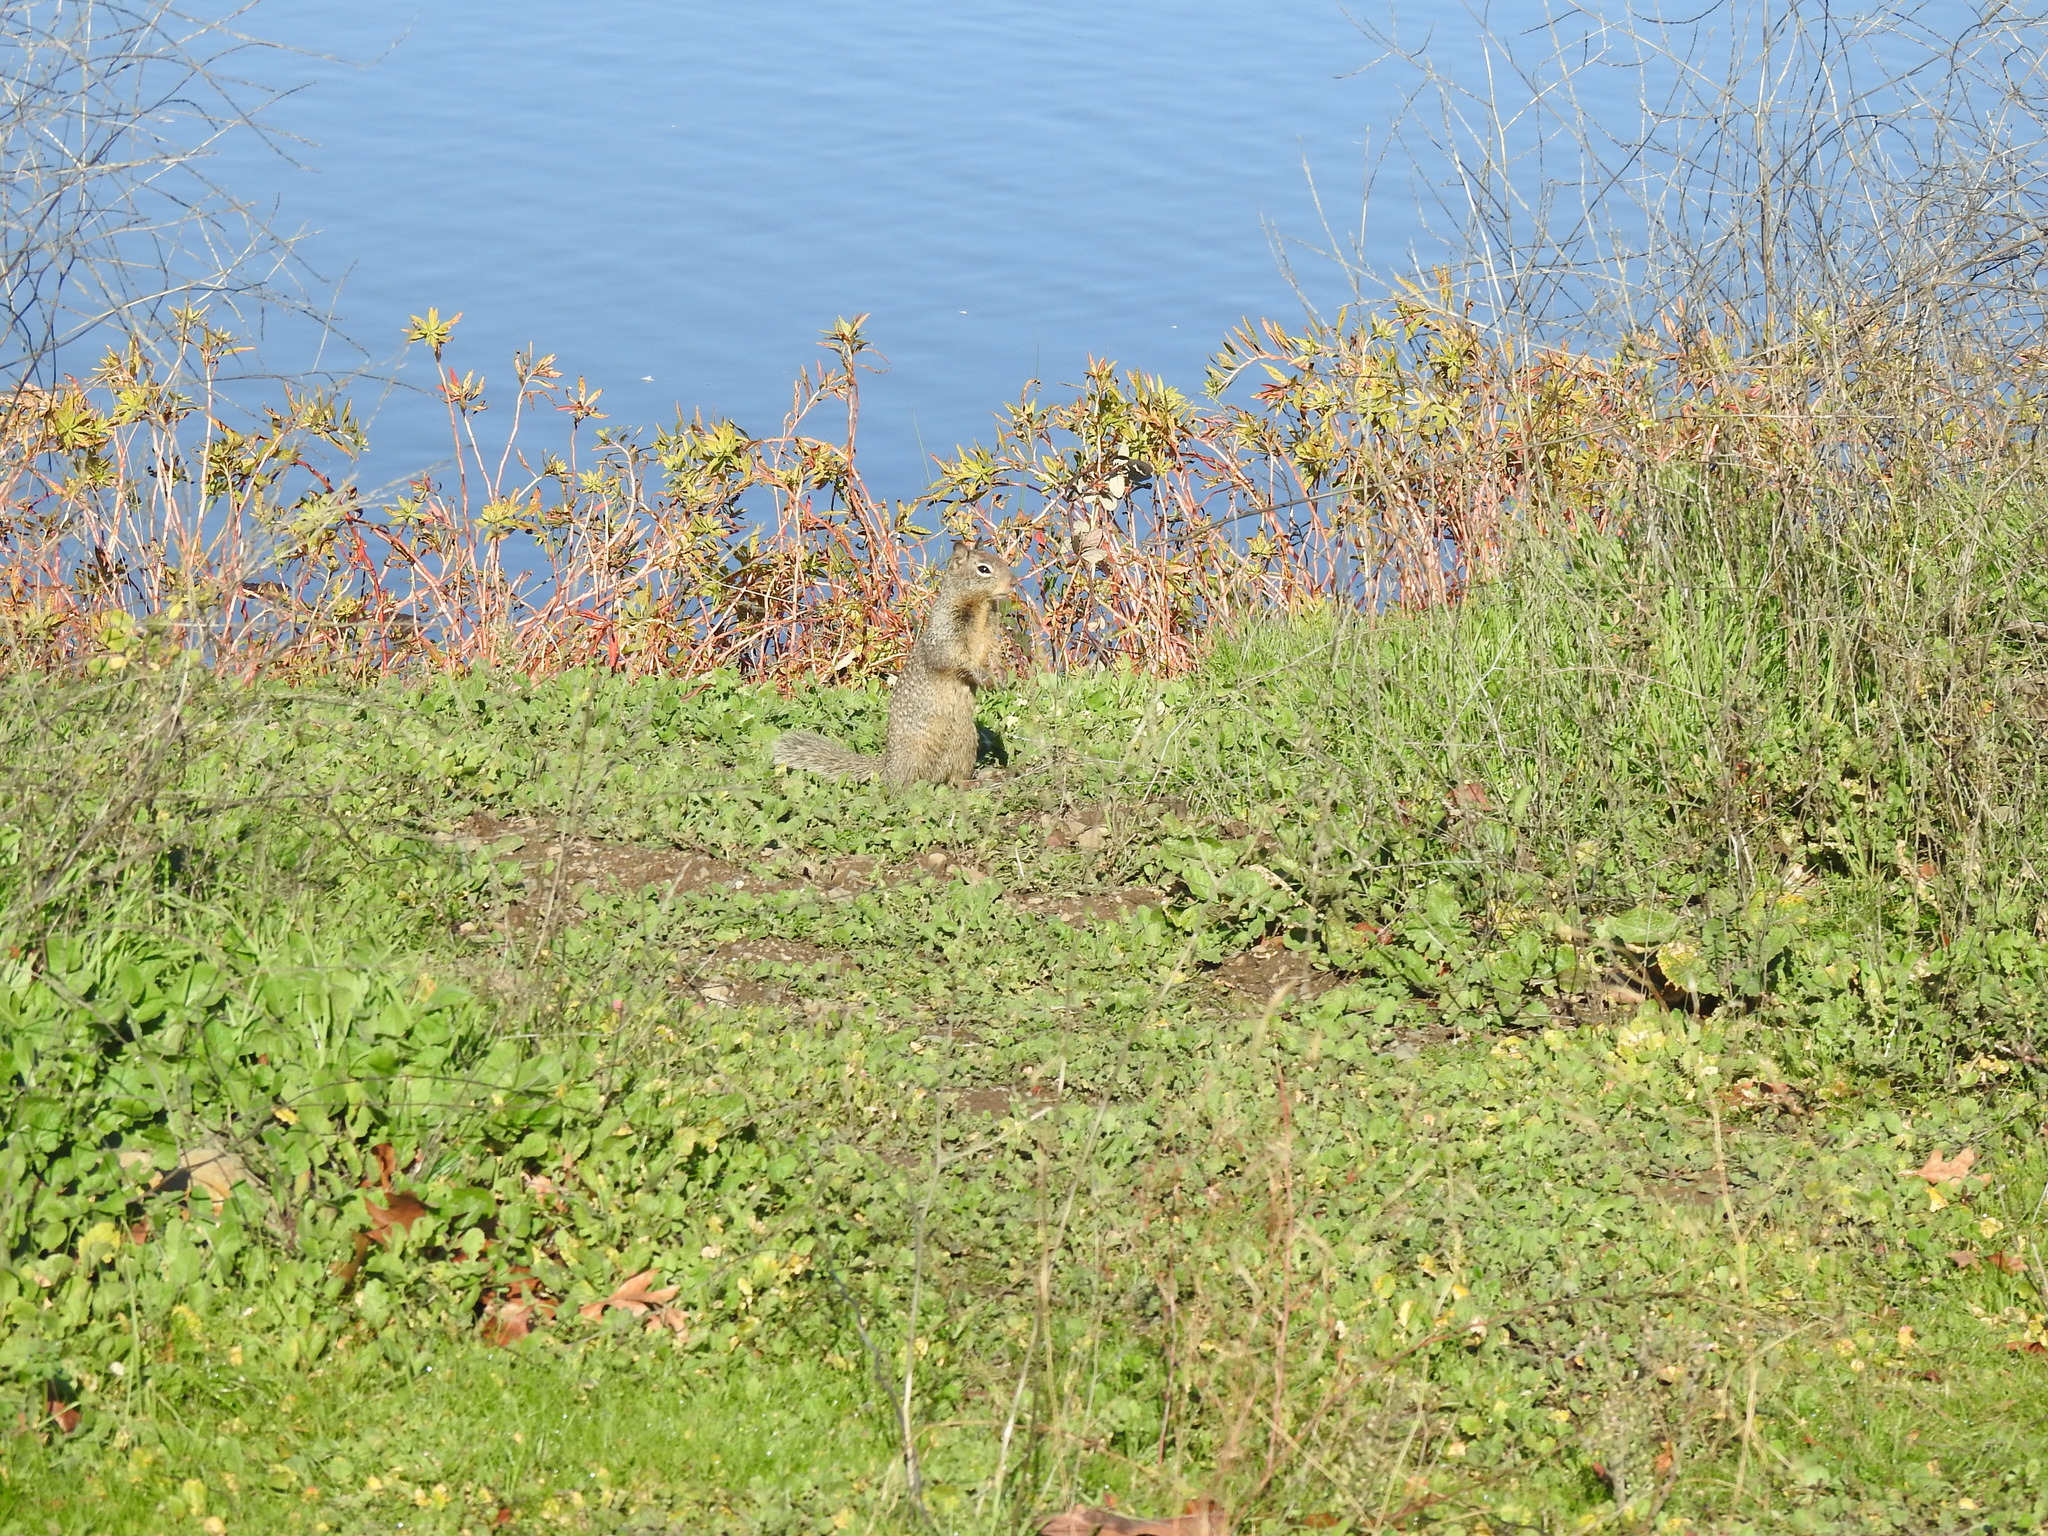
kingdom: Animalia
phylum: Chordata
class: Mammalia
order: Rodentia
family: Sciuridae
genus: Otospermophilus
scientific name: Otospermophilus beecheyi
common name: California ground squirrel
